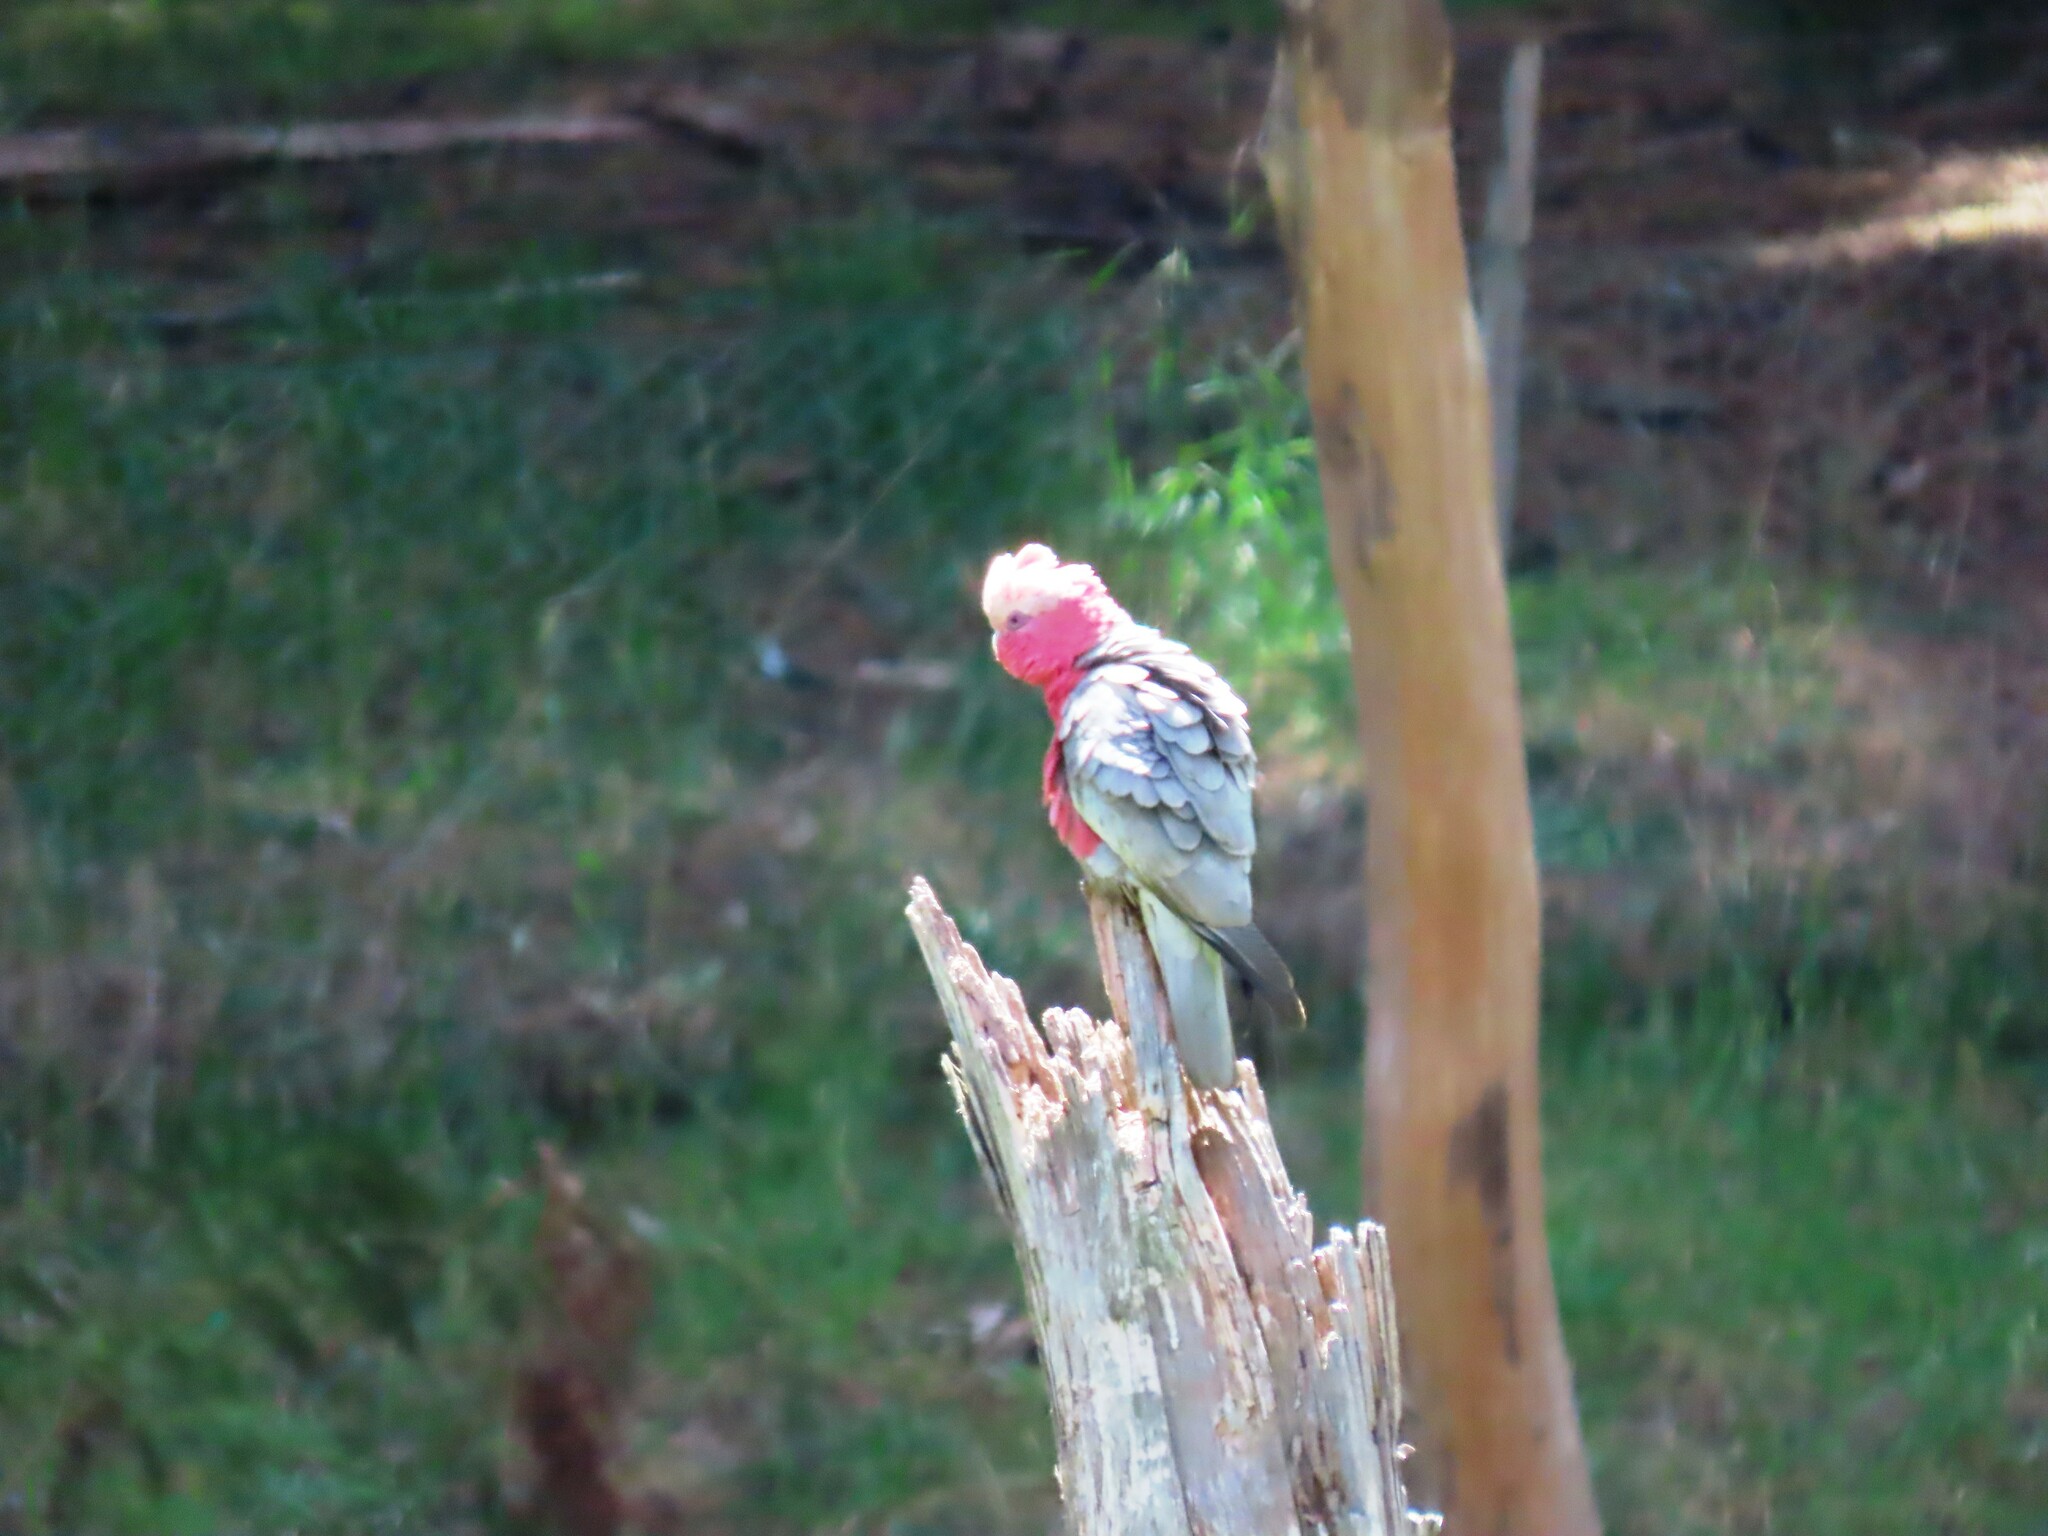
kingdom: Animalia
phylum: Chordata
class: Aves
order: Psittaciformes
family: Psittacidae
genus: Eolophus
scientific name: Eolophus roseicapilla
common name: Galah
